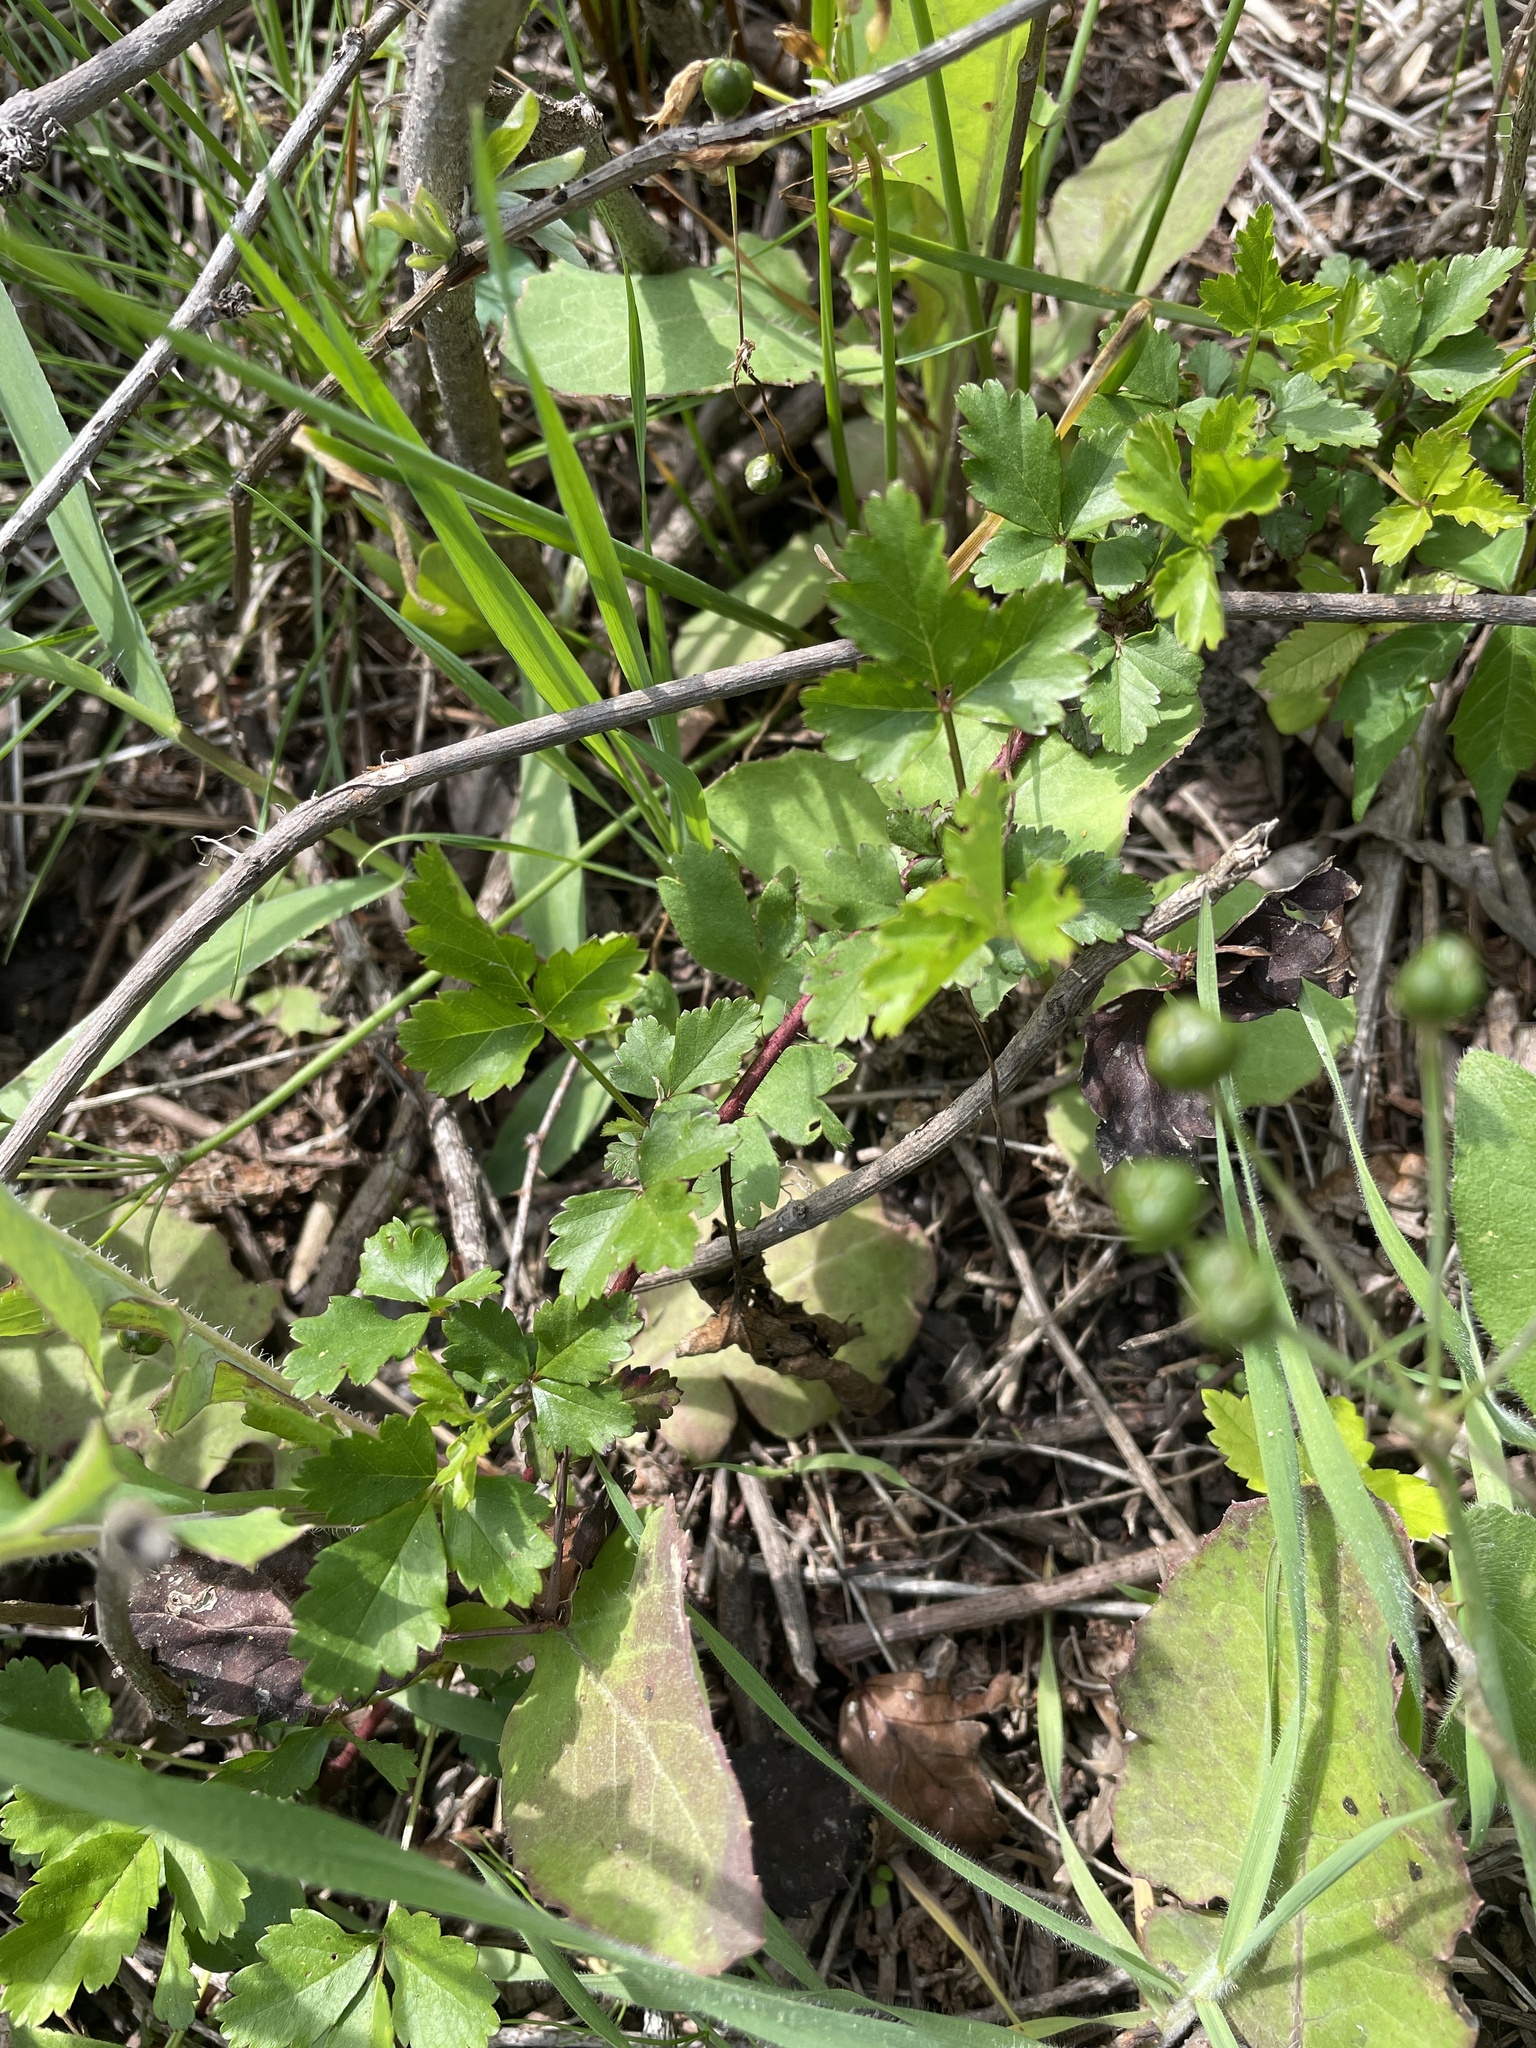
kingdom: Plantae
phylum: Tracheophyta
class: Magnoliopsida
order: Rosales
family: Rosaceae
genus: Rubus
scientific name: Rubus trivialis
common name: Southern dewberry
